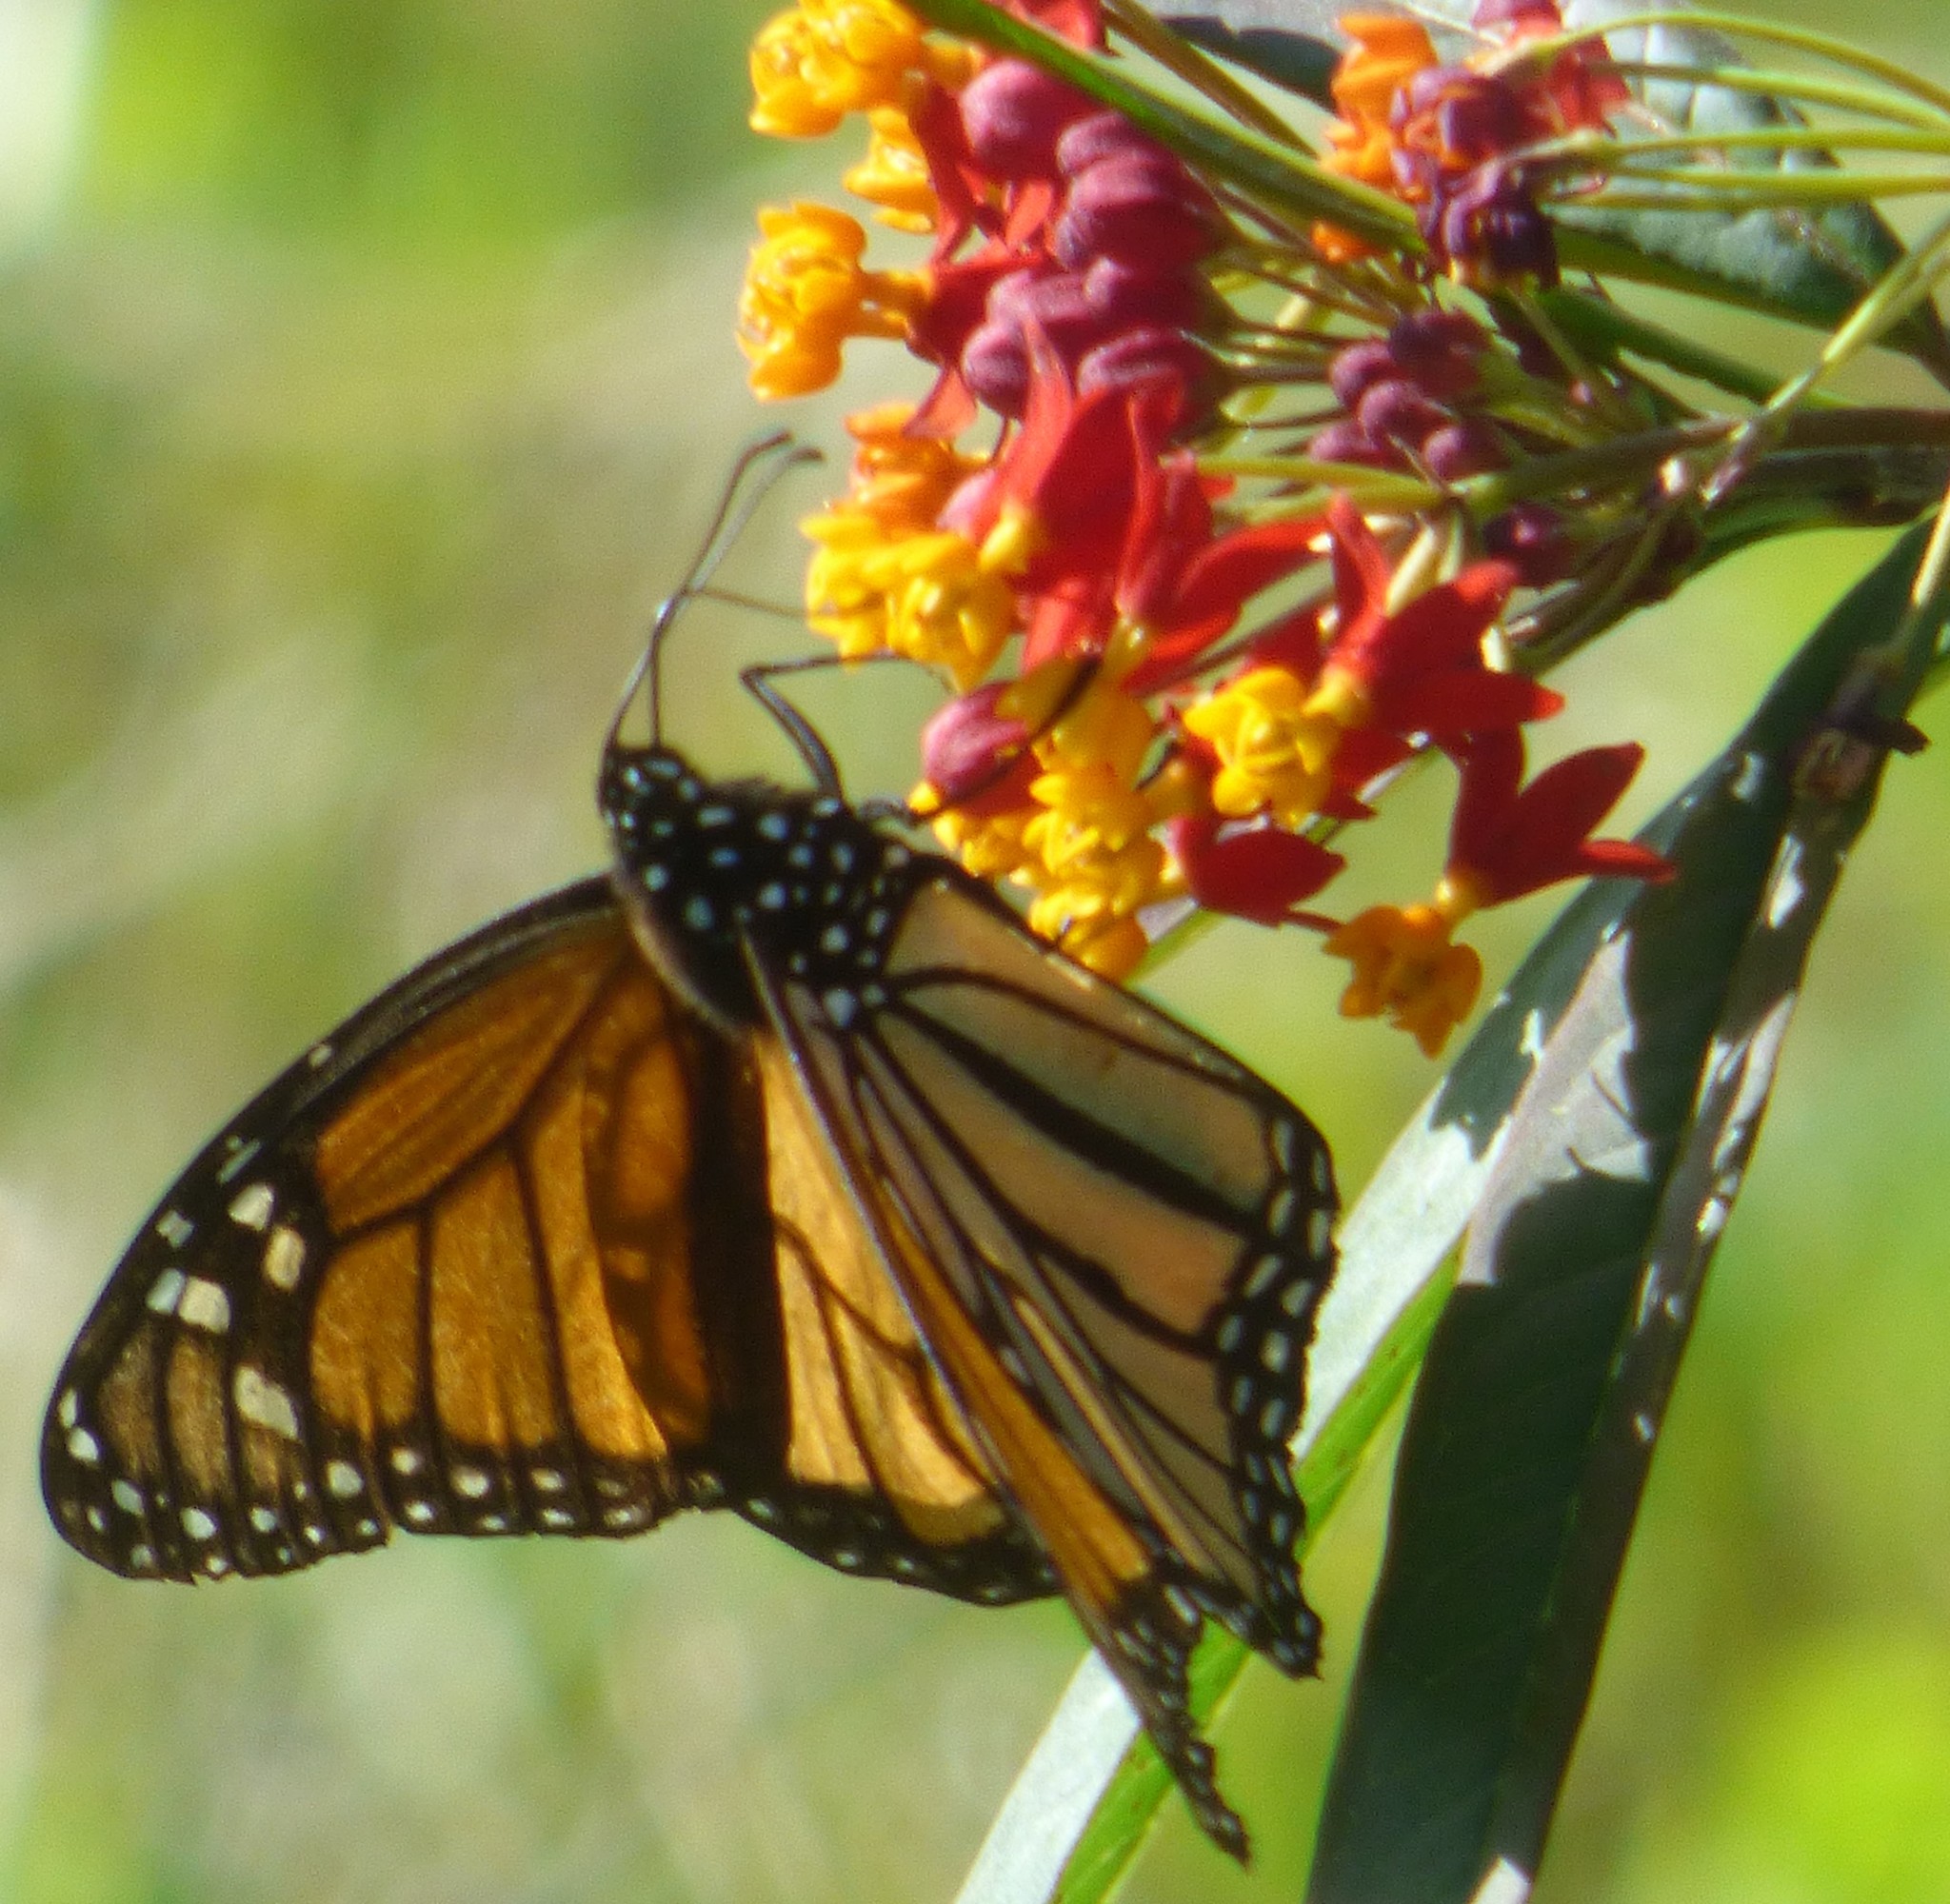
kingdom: Animalia
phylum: Arthropoda
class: Insecta
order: Lepidoptera
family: Nymphalidae
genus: Danaus
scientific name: Danaus plexippus
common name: Monarch
